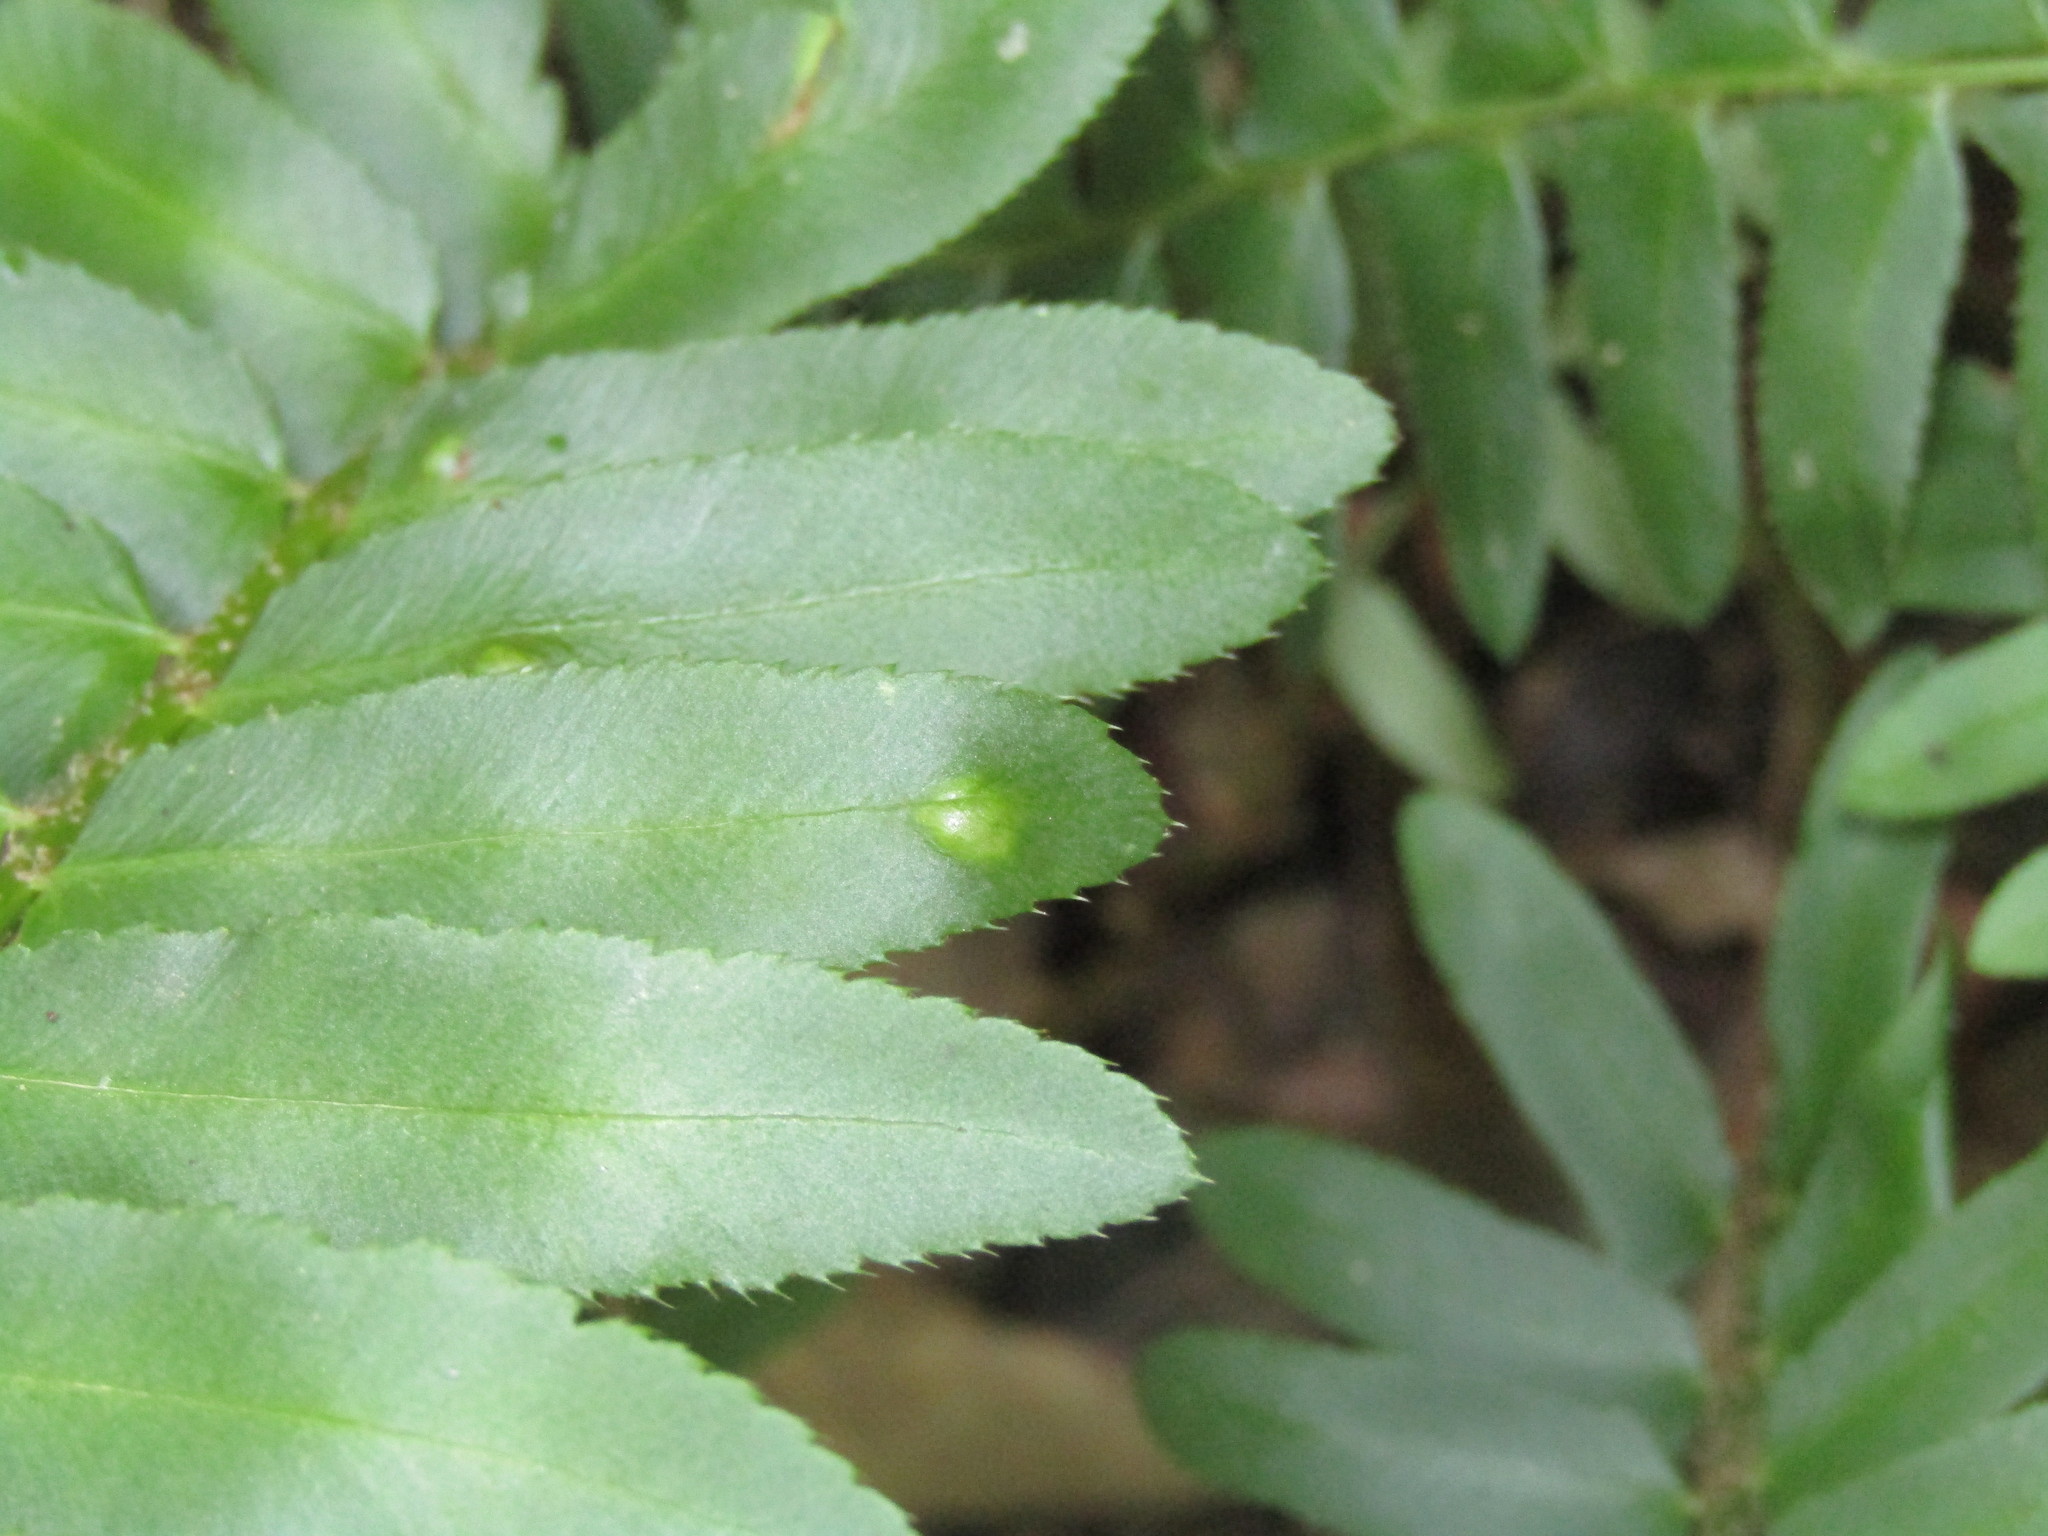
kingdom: Fungi
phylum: Ascomycota
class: Taphrinomycetes
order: Taphrinales
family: Taphrinaceae
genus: Taphrina
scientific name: Taphrina polystichi
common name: Christmas fern leaf curl
